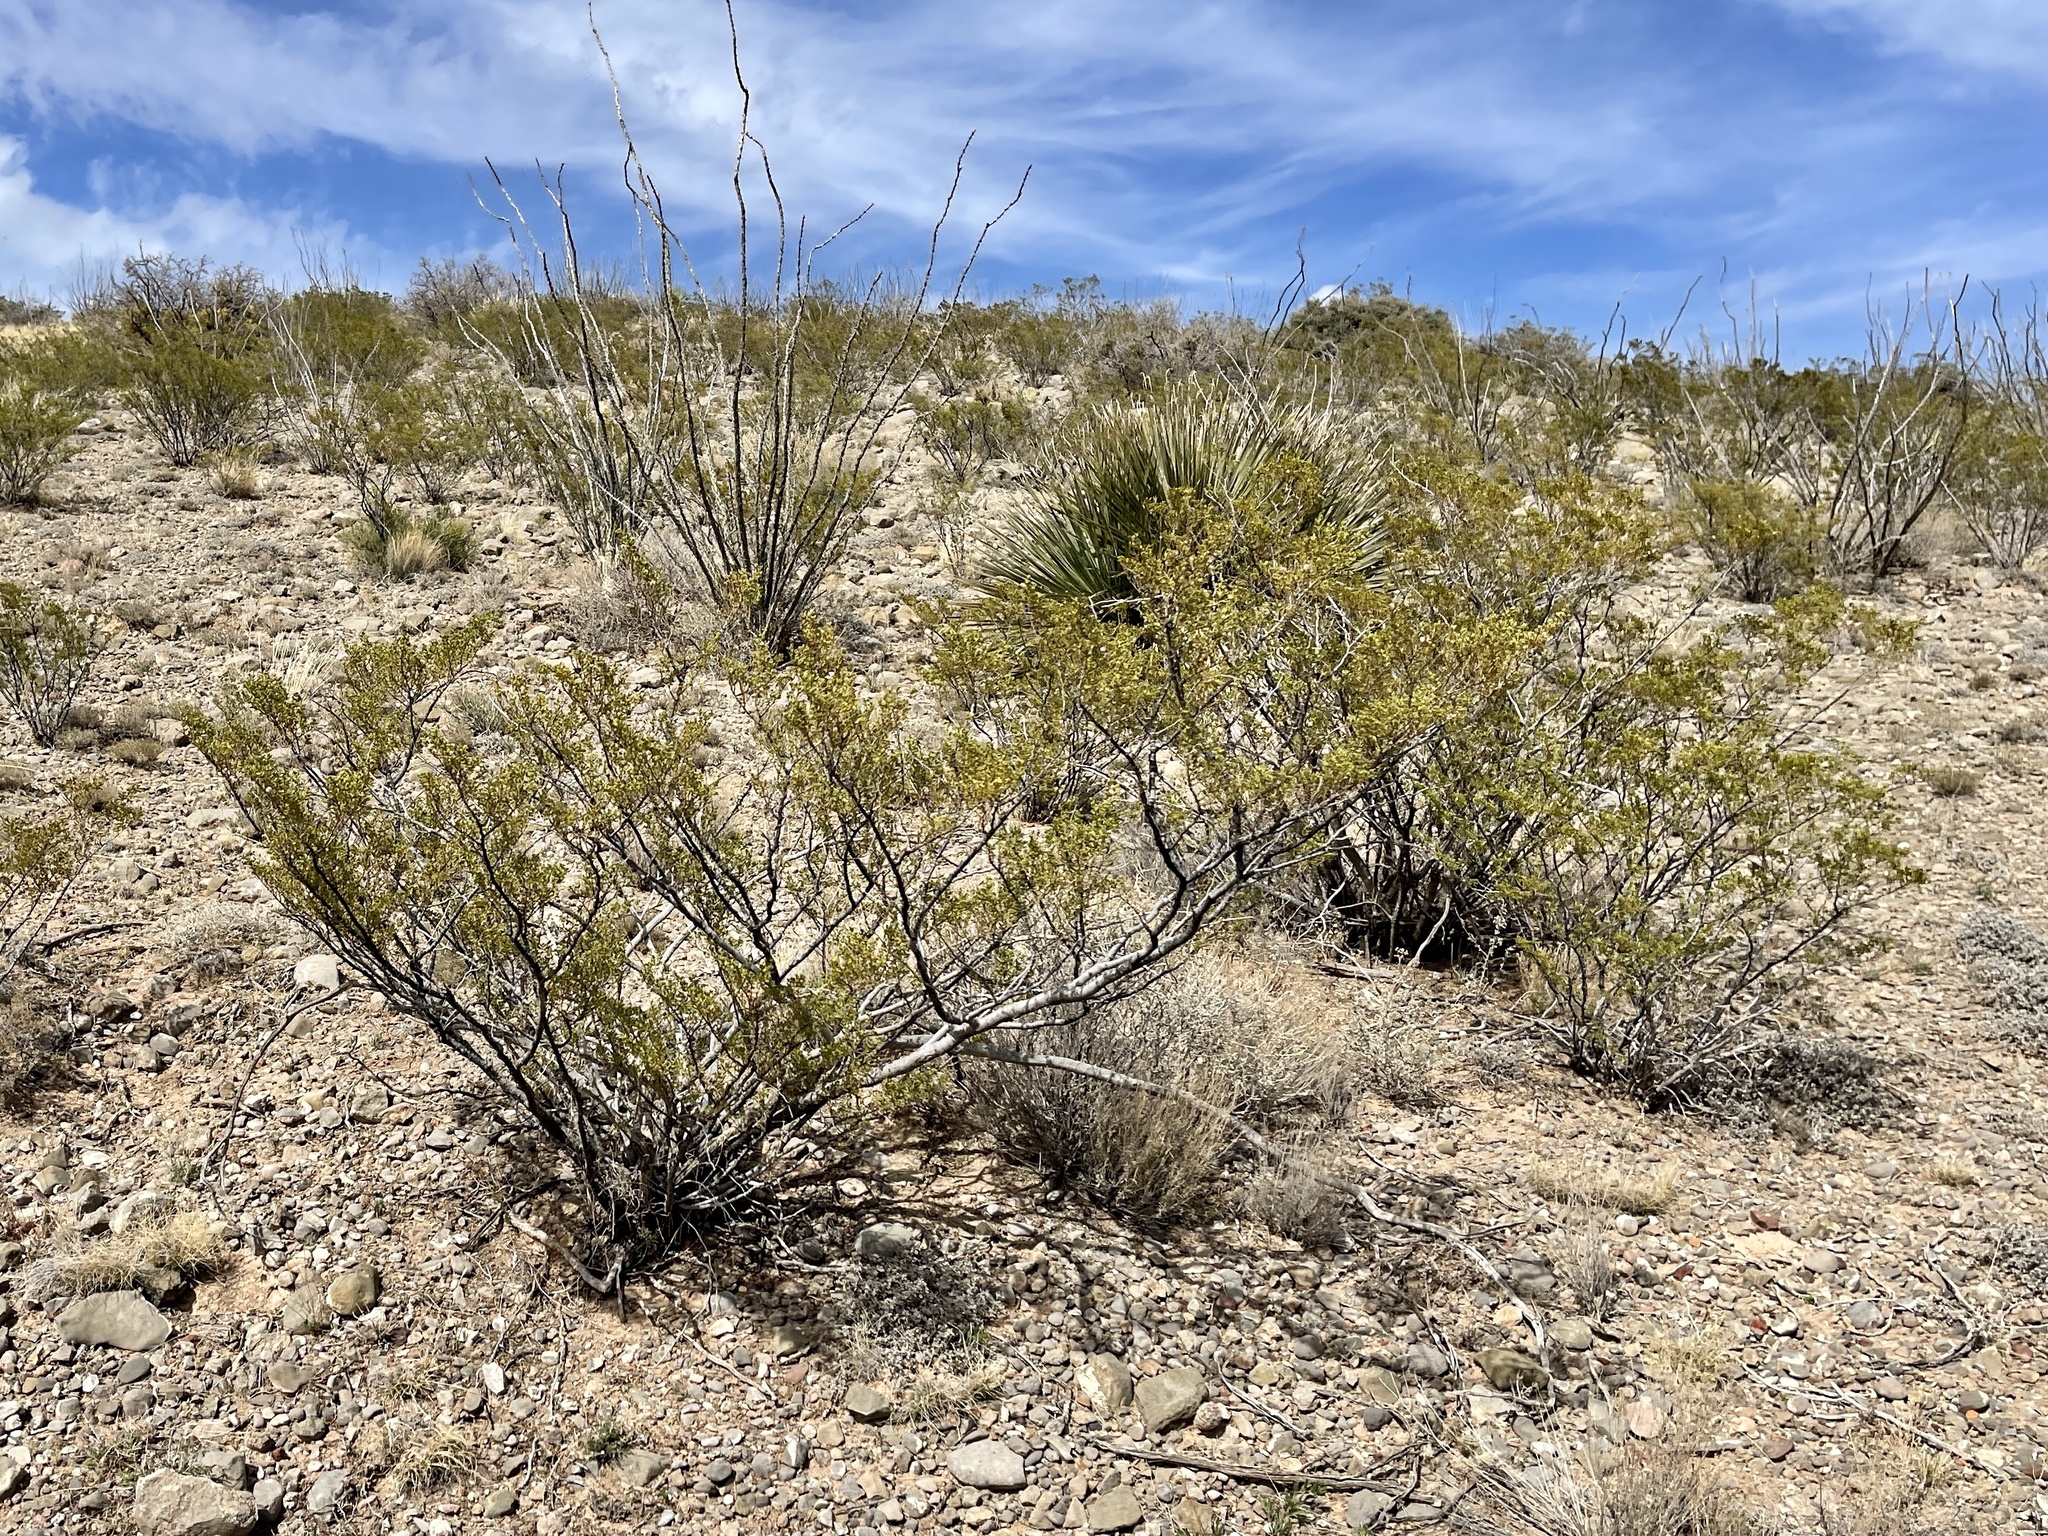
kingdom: Plantae
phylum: Tracheophyta
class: Magnoliopsida
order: Zygophyllales
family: Zygophyllaceae
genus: Larrea
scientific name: Larrea tridentata
